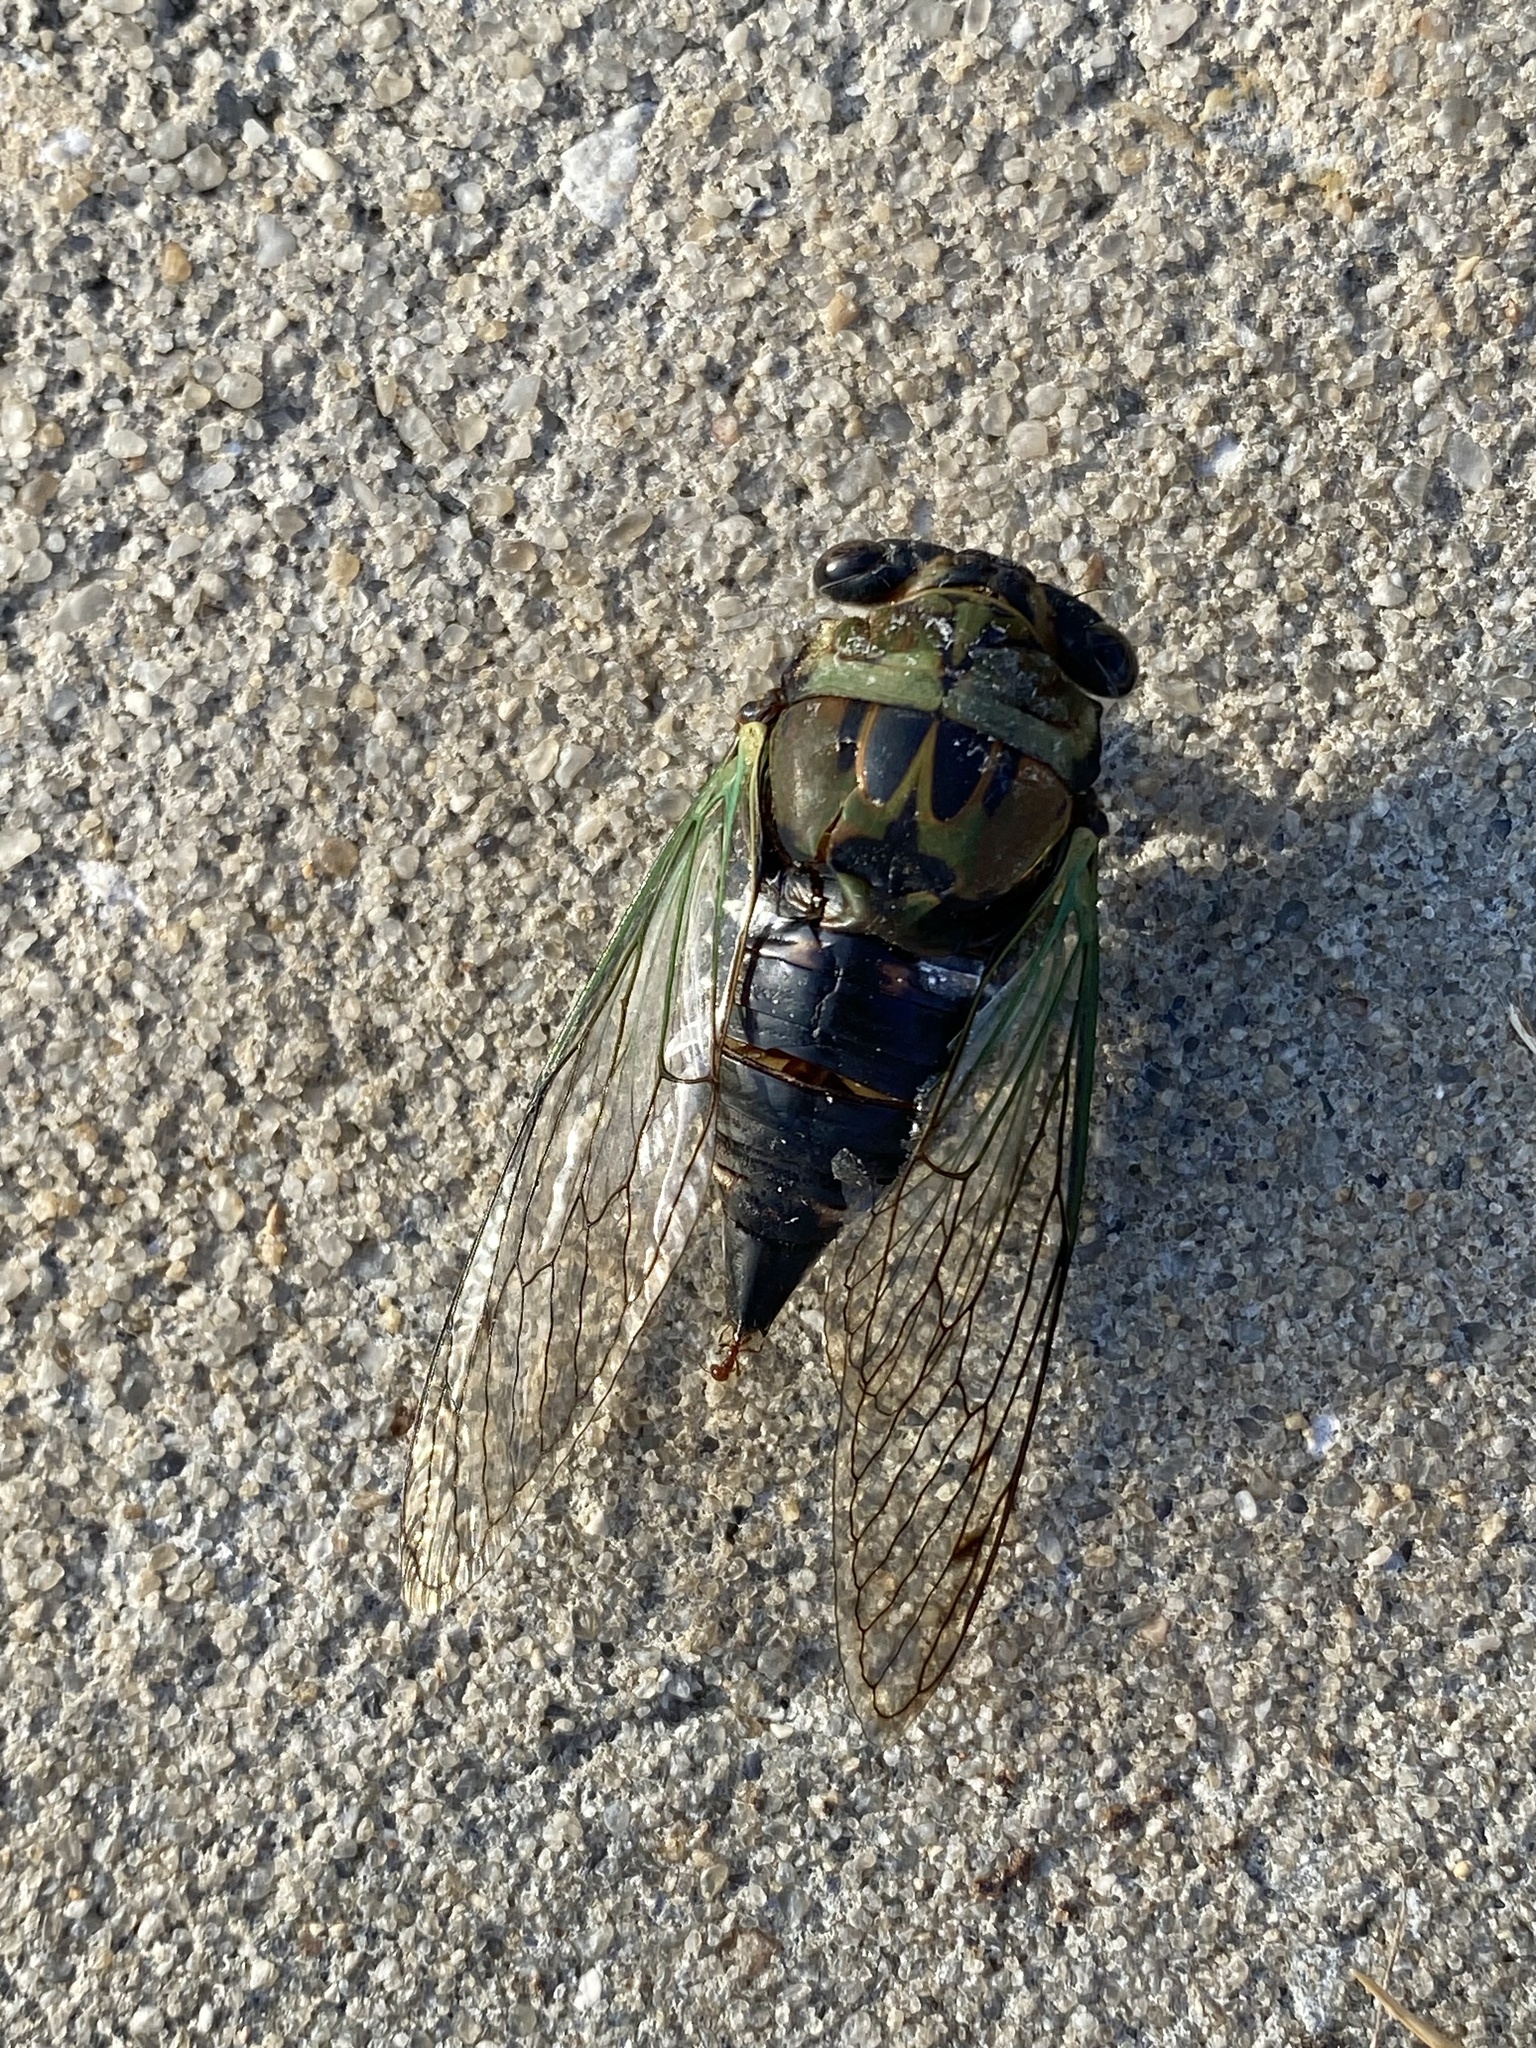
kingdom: Animalia
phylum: Arthropoda
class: Insecta
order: Hemiptera
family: Cicadidae
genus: Neotibicen
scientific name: Neotibicen tibicen
